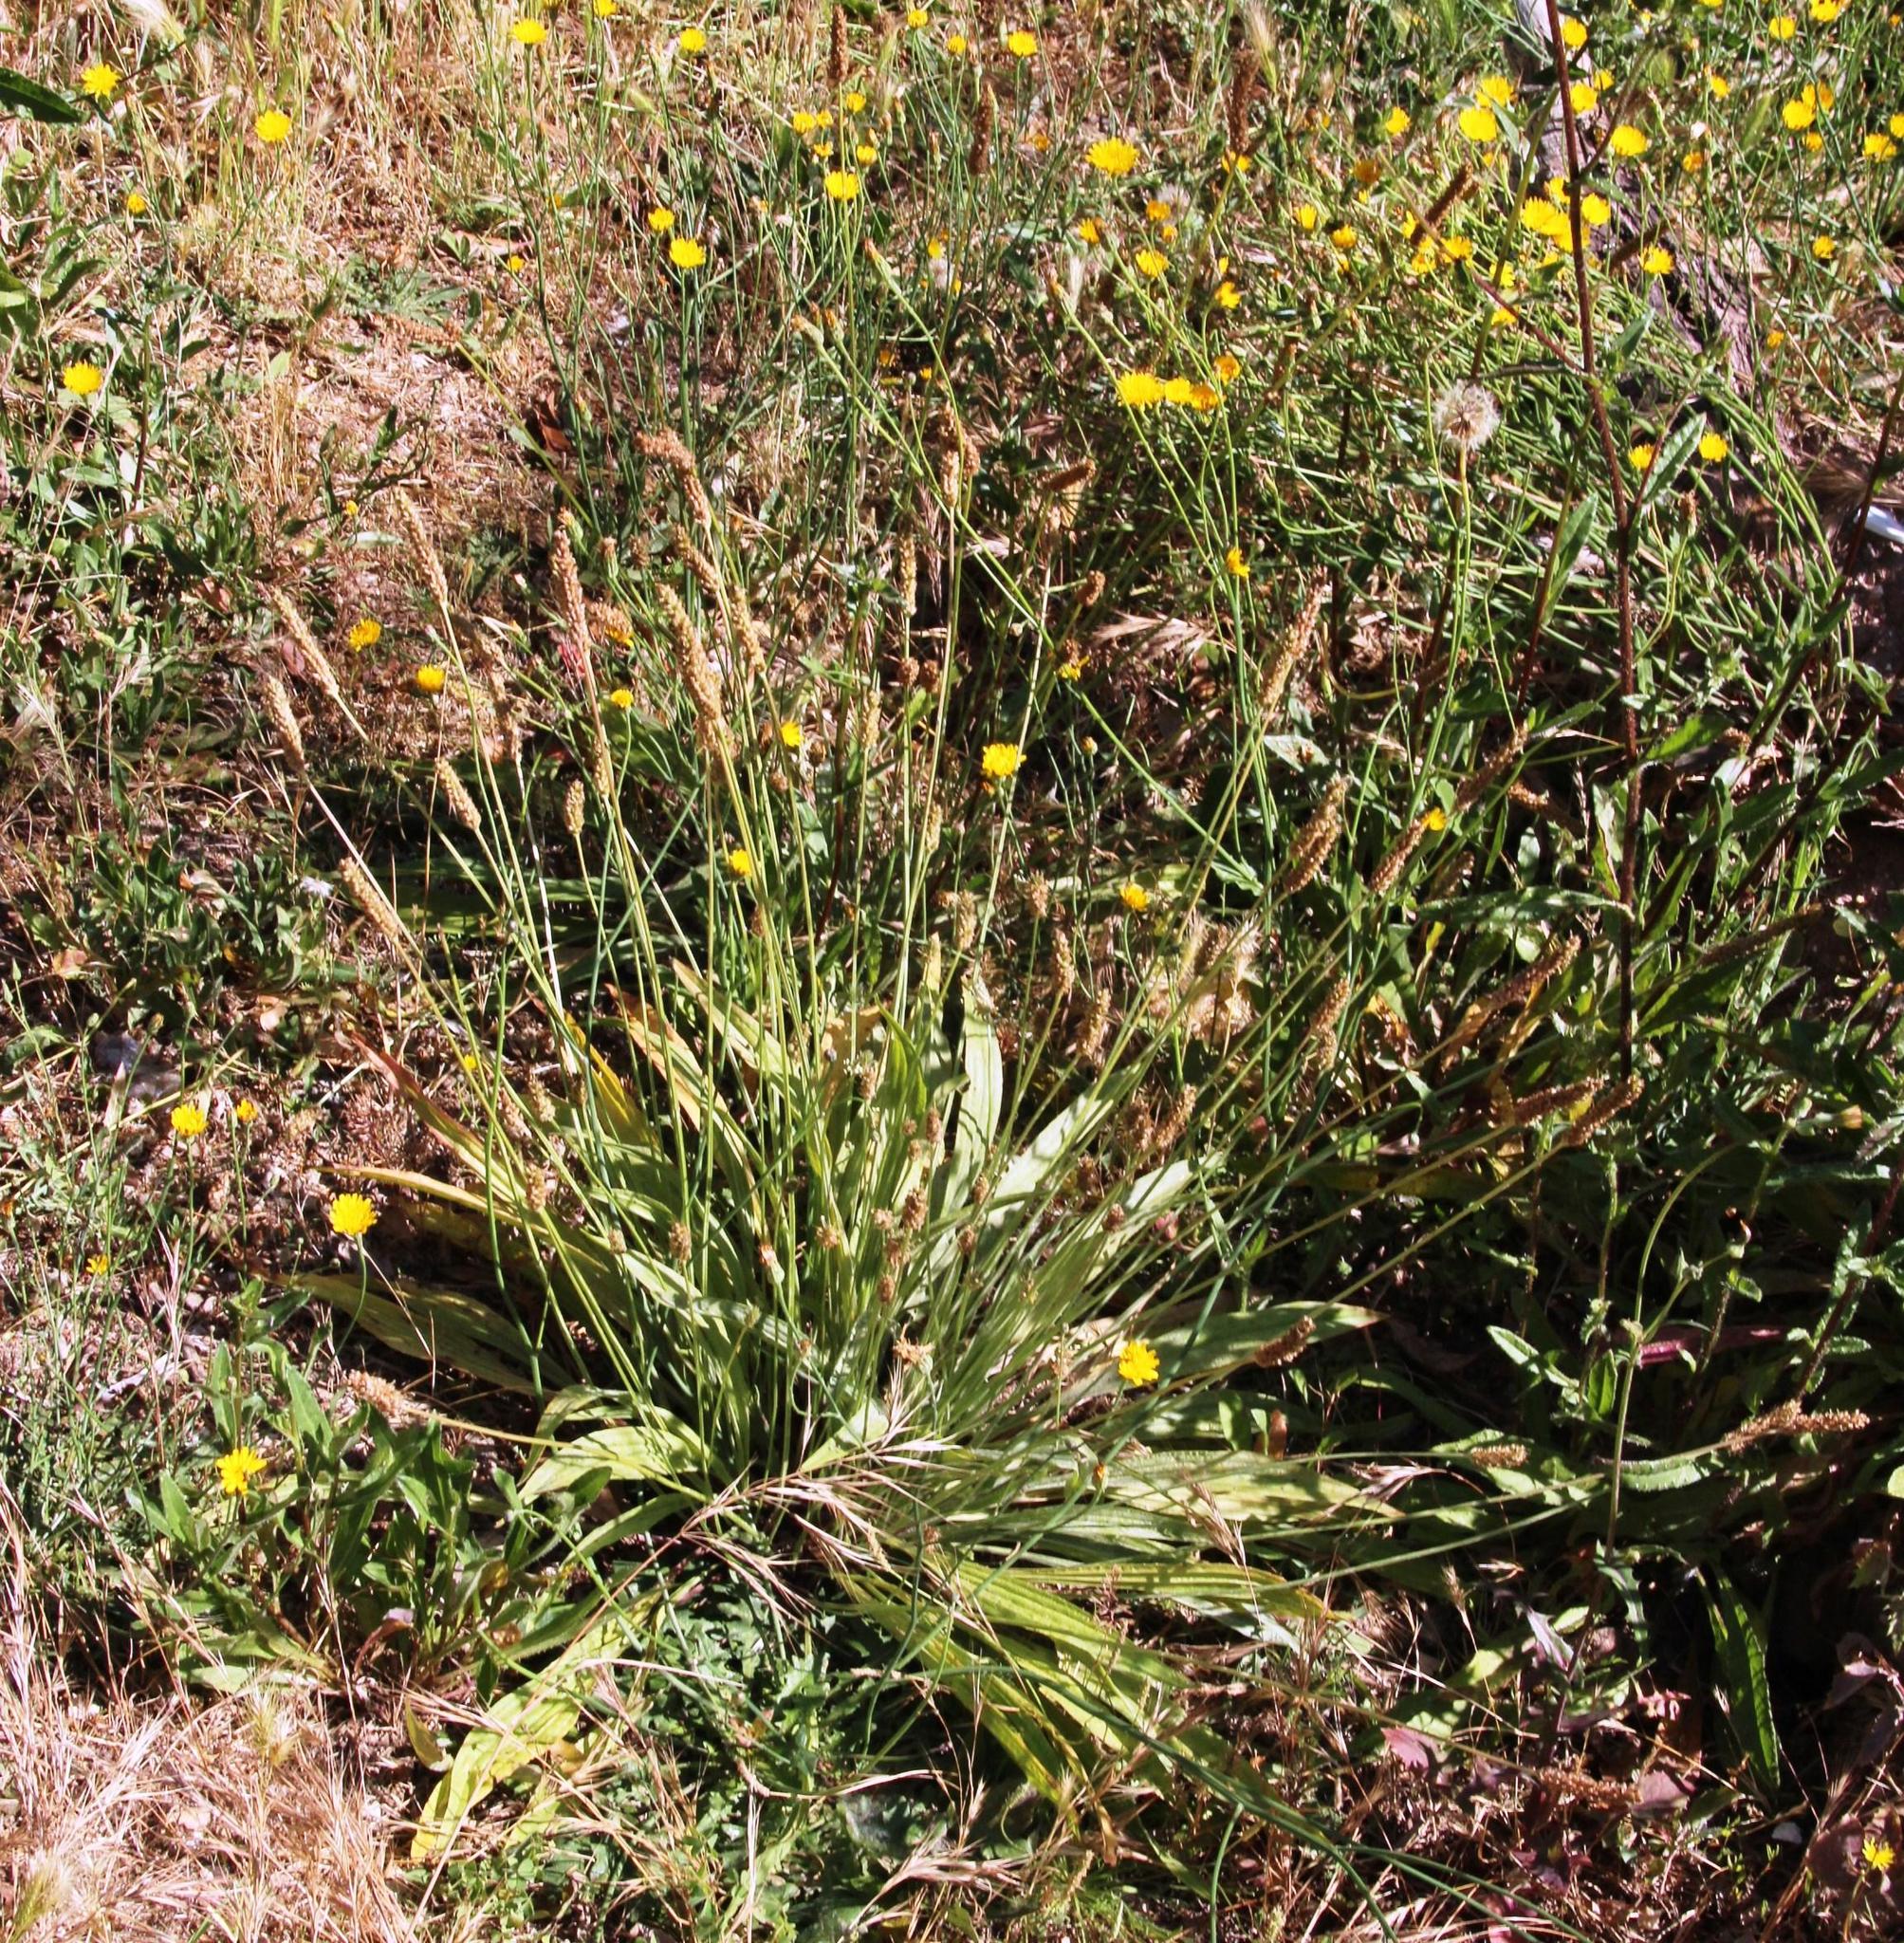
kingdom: Plantae
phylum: Tracheophyta
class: Magnoliopsida
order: Lamiales
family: Plantaginaceae
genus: Plantago
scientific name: Plantago lanceolata
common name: Ribwort plantain
